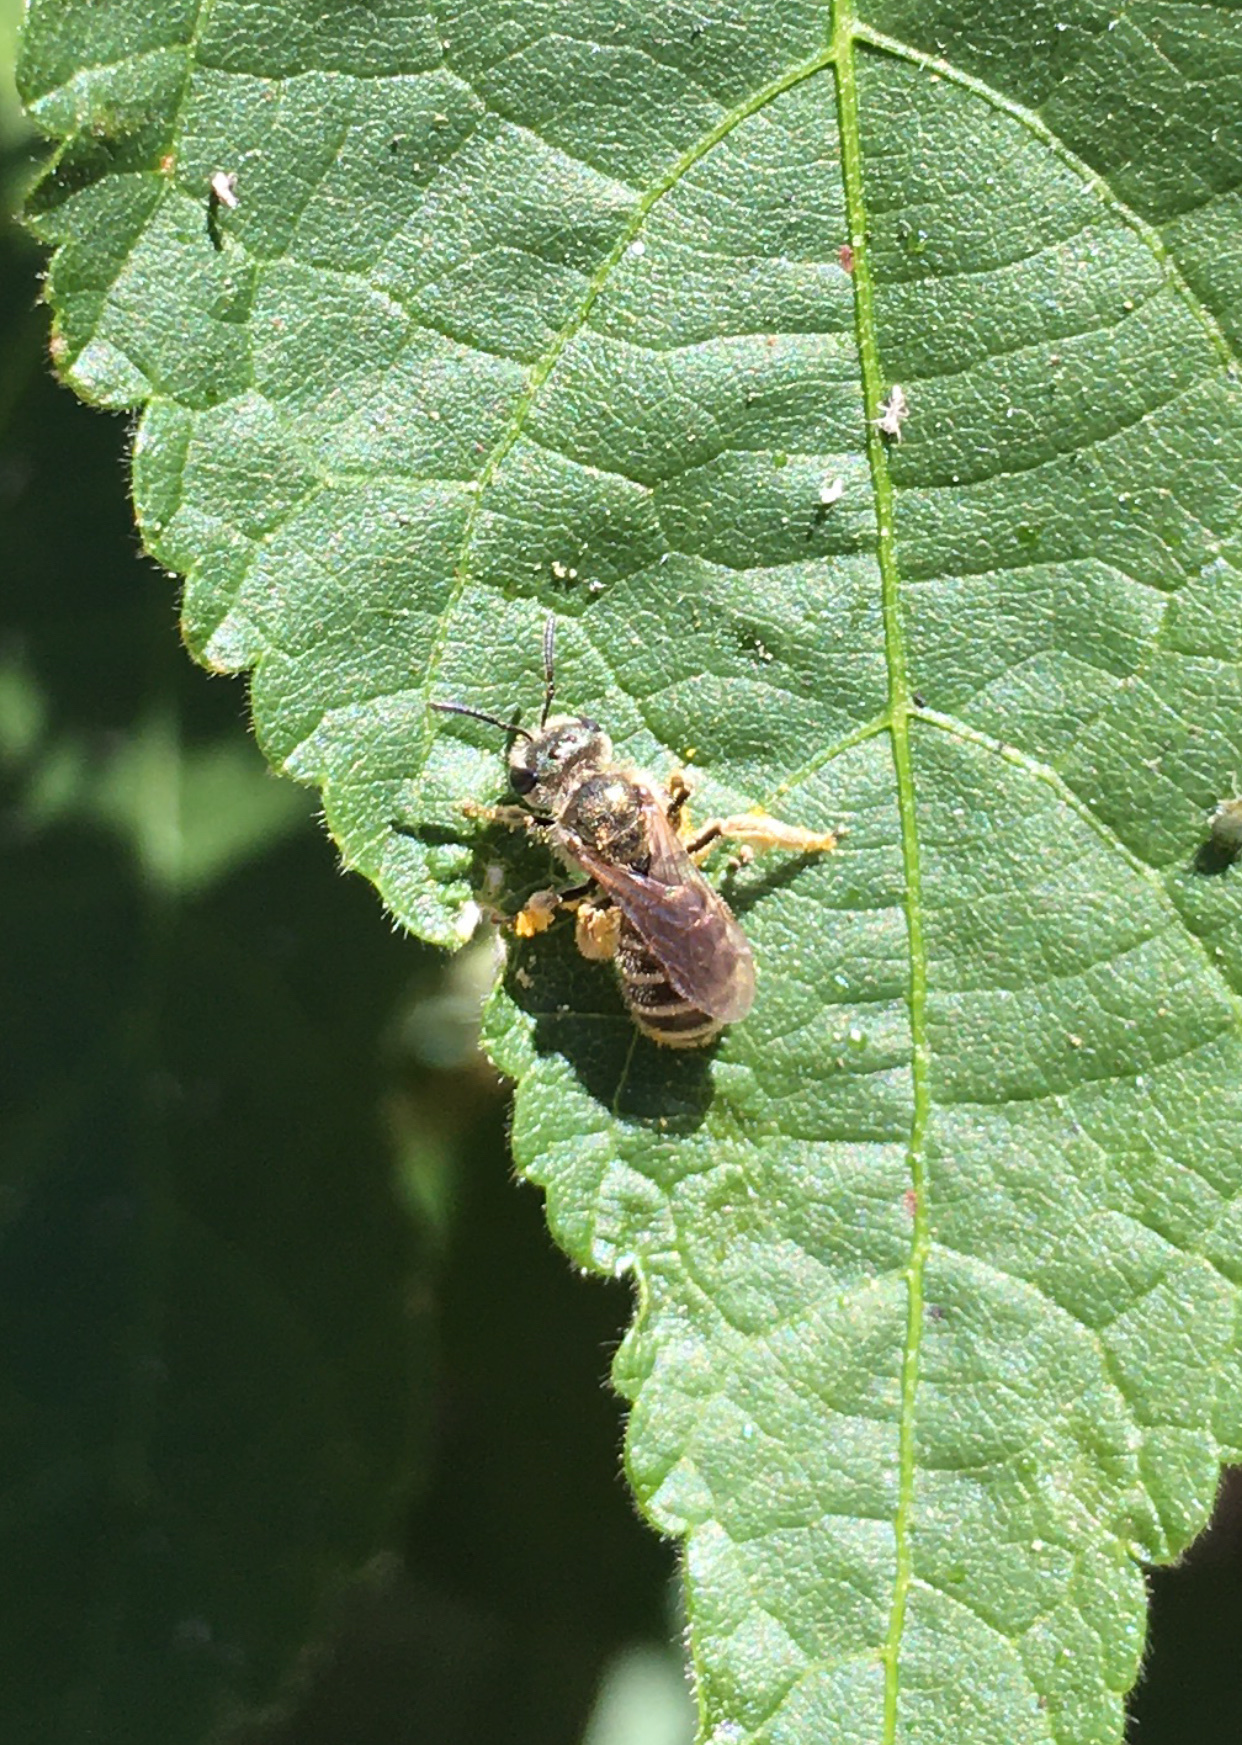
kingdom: Animalia
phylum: Arthropoda
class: Insecta
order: Hymenoptera
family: Halictidae
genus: Halictus
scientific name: Halictus tripartitus
